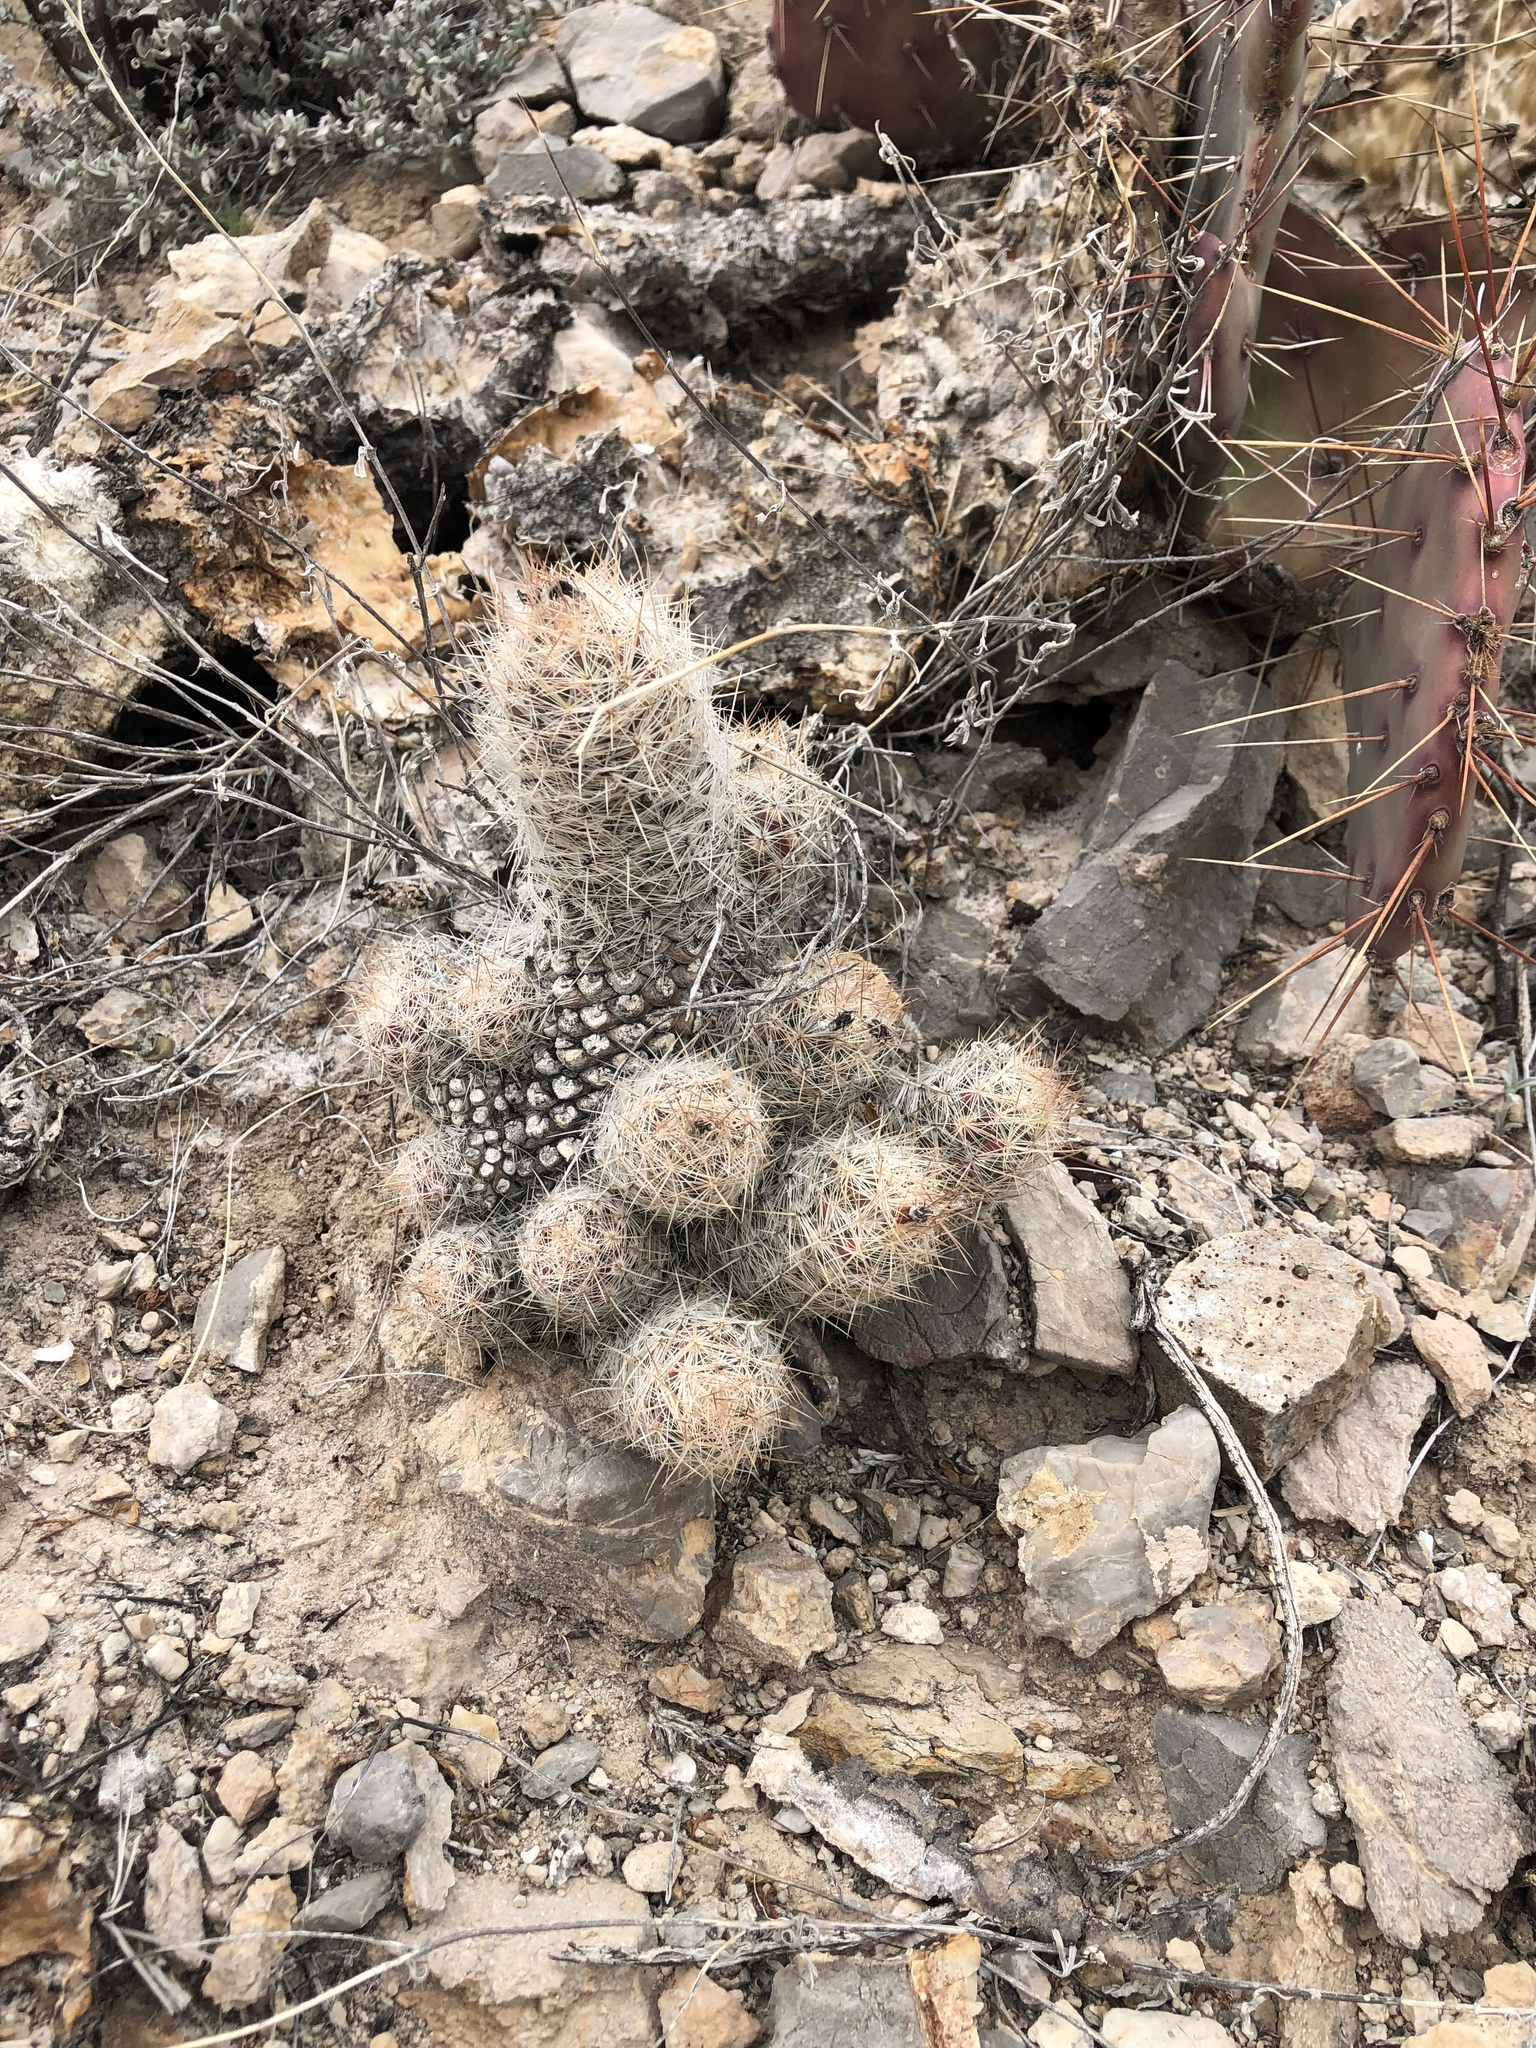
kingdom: Plantae
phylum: Tracheophyta
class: Magnoliopsida
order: Caryophyllales
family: Cactaceae
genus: Pelecyphora
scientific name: Pelecyphora tuberculosa
